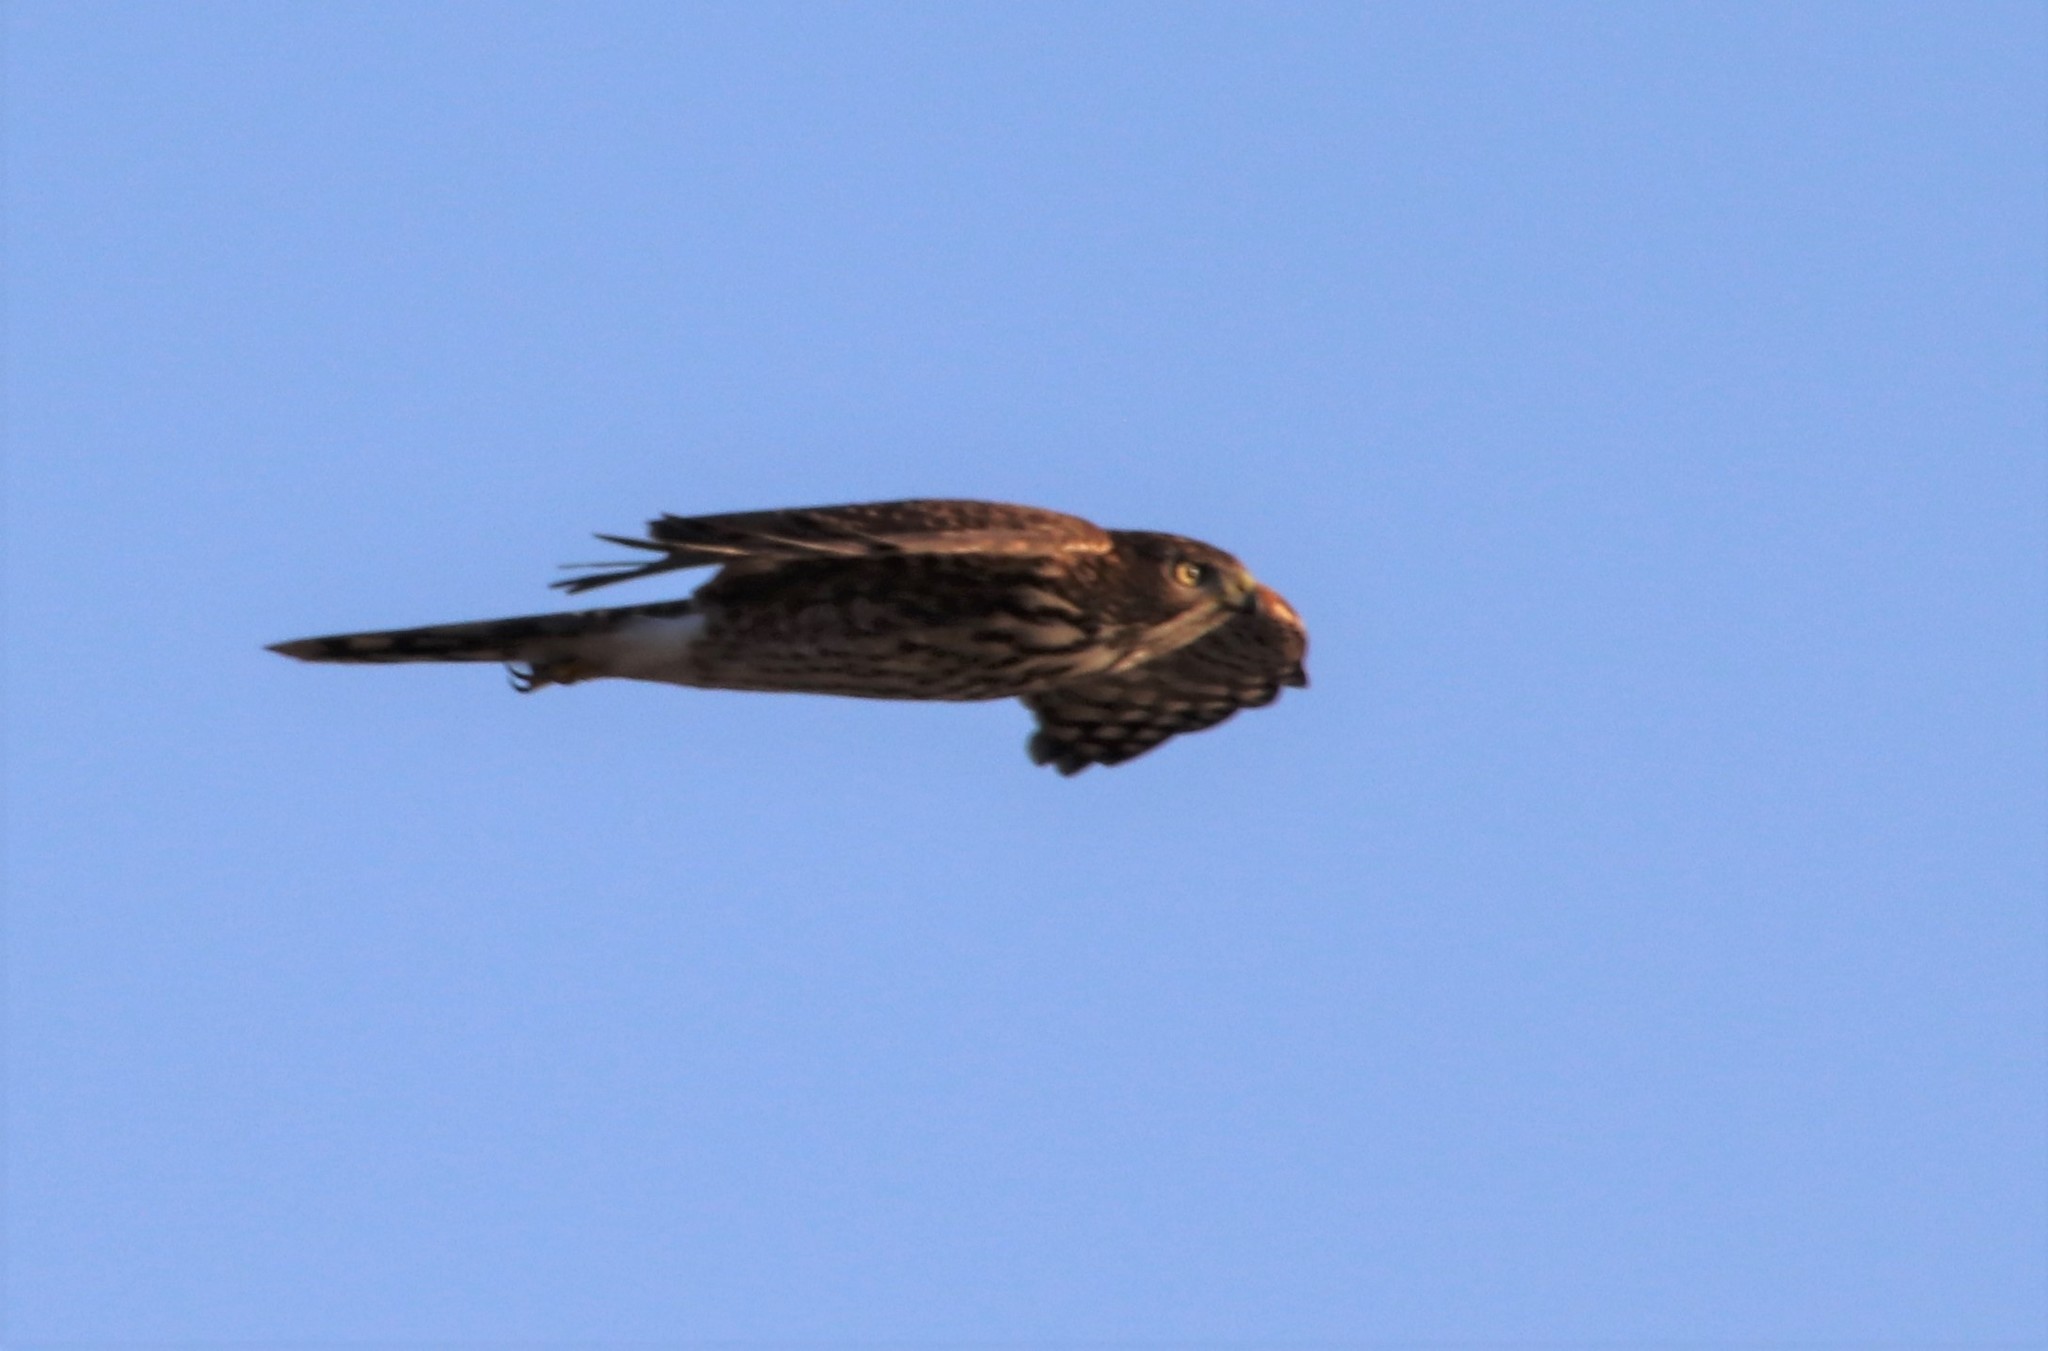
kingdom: Animalia
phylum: Chordata
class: Aves
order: Accipitriformes
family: Accipitridae
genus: Accipiter
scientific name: Accipiter cooperii
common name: Cooper's hawk
